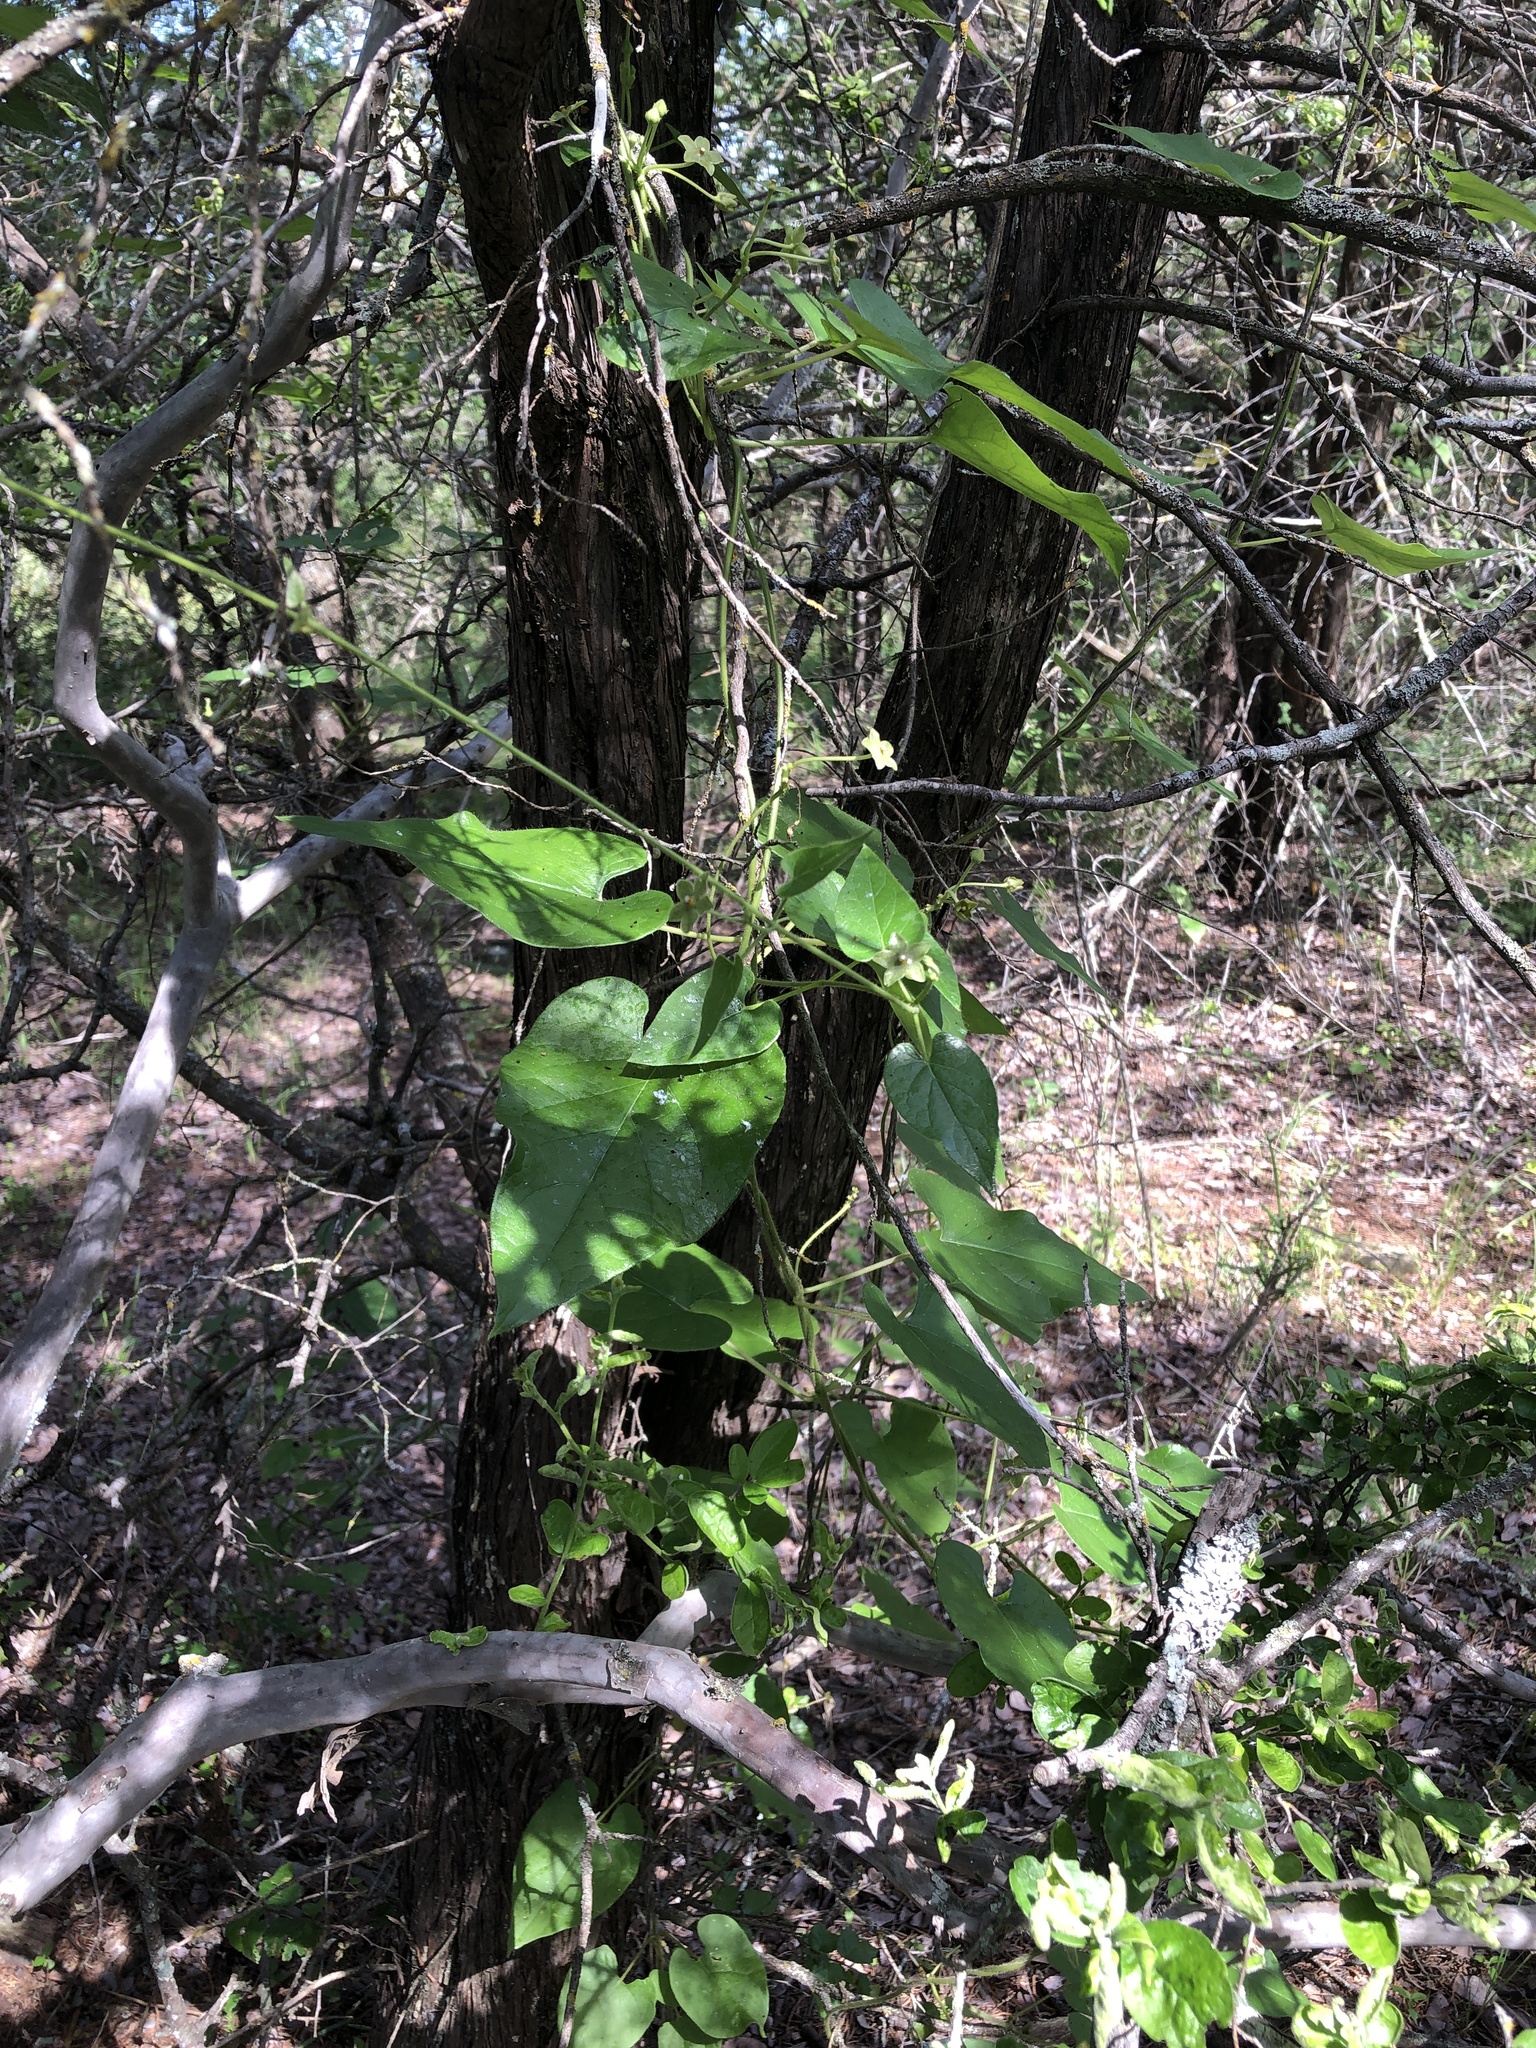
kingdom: Plantae
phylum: Tracheophyta
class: Magnoliopsida
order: Gentianales
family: Apocynaceae
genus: Dictyanthus
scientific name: Dictyanthus reticulatus
